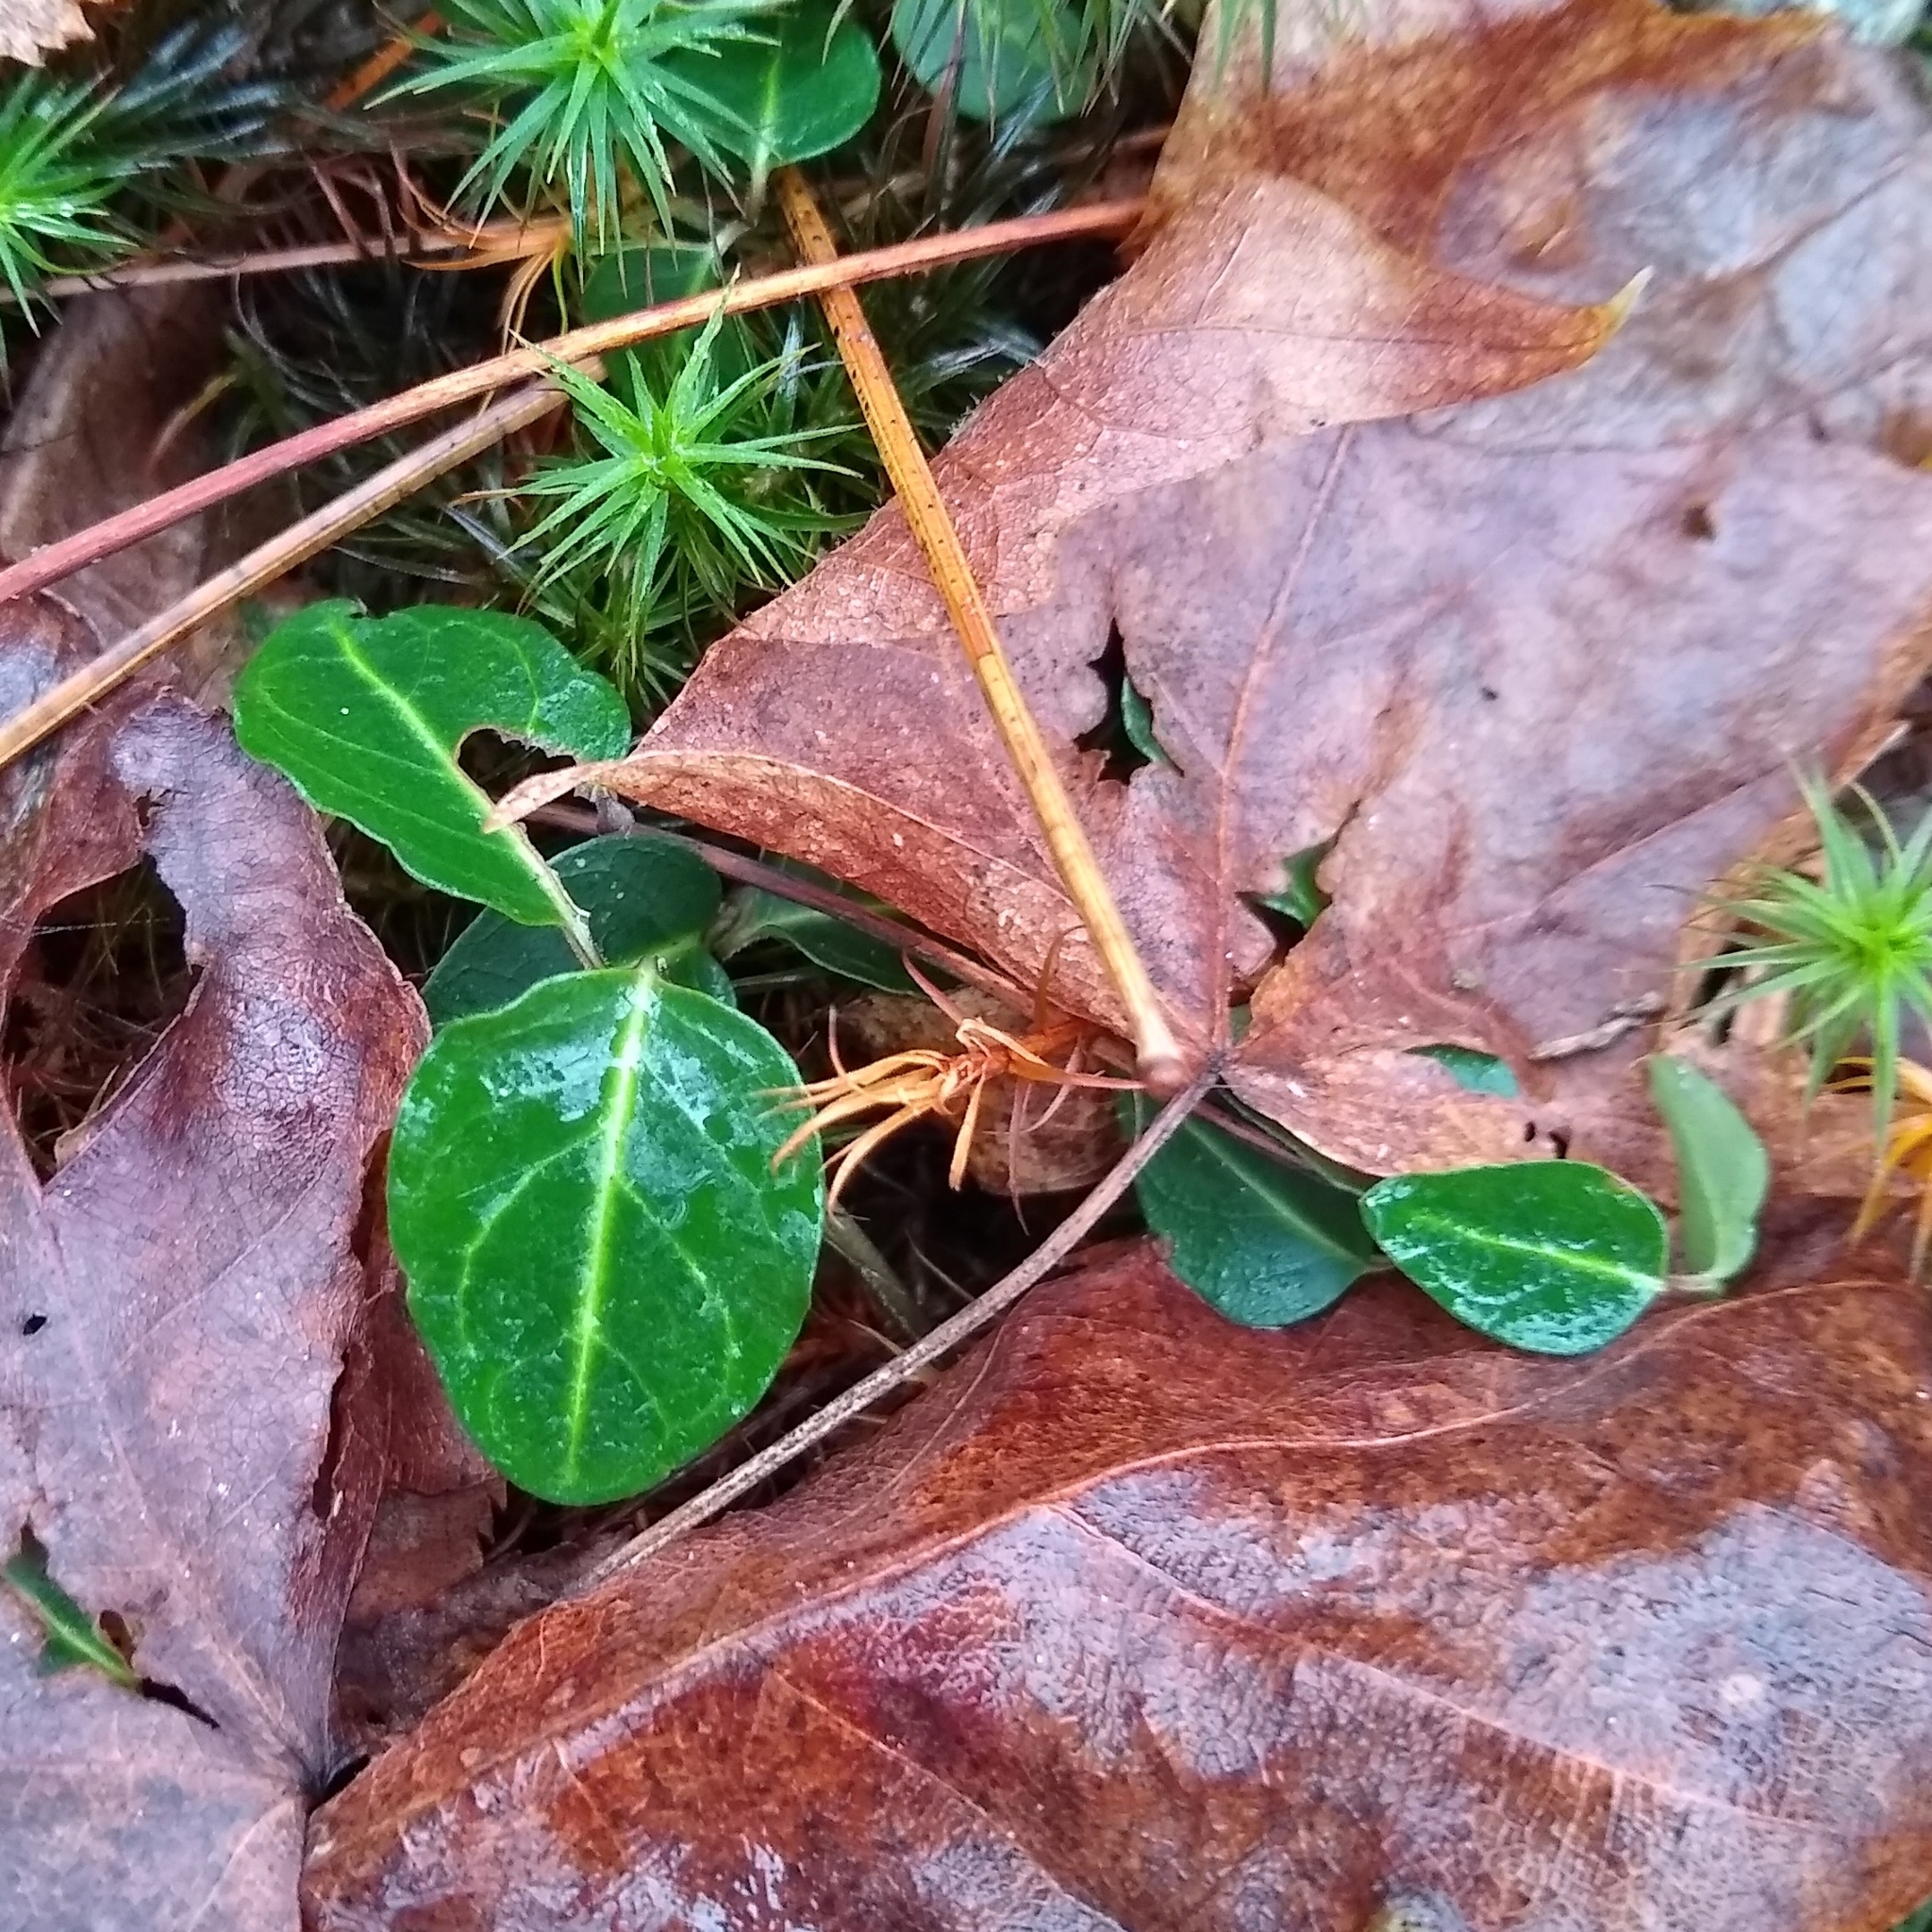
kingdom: Plantae
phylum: Tracheophyta
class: Magnoliopsida
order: Gentianales
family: Rubiaceae
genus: Mitchella
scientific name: Mitchella repens
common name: Partridge-berry
